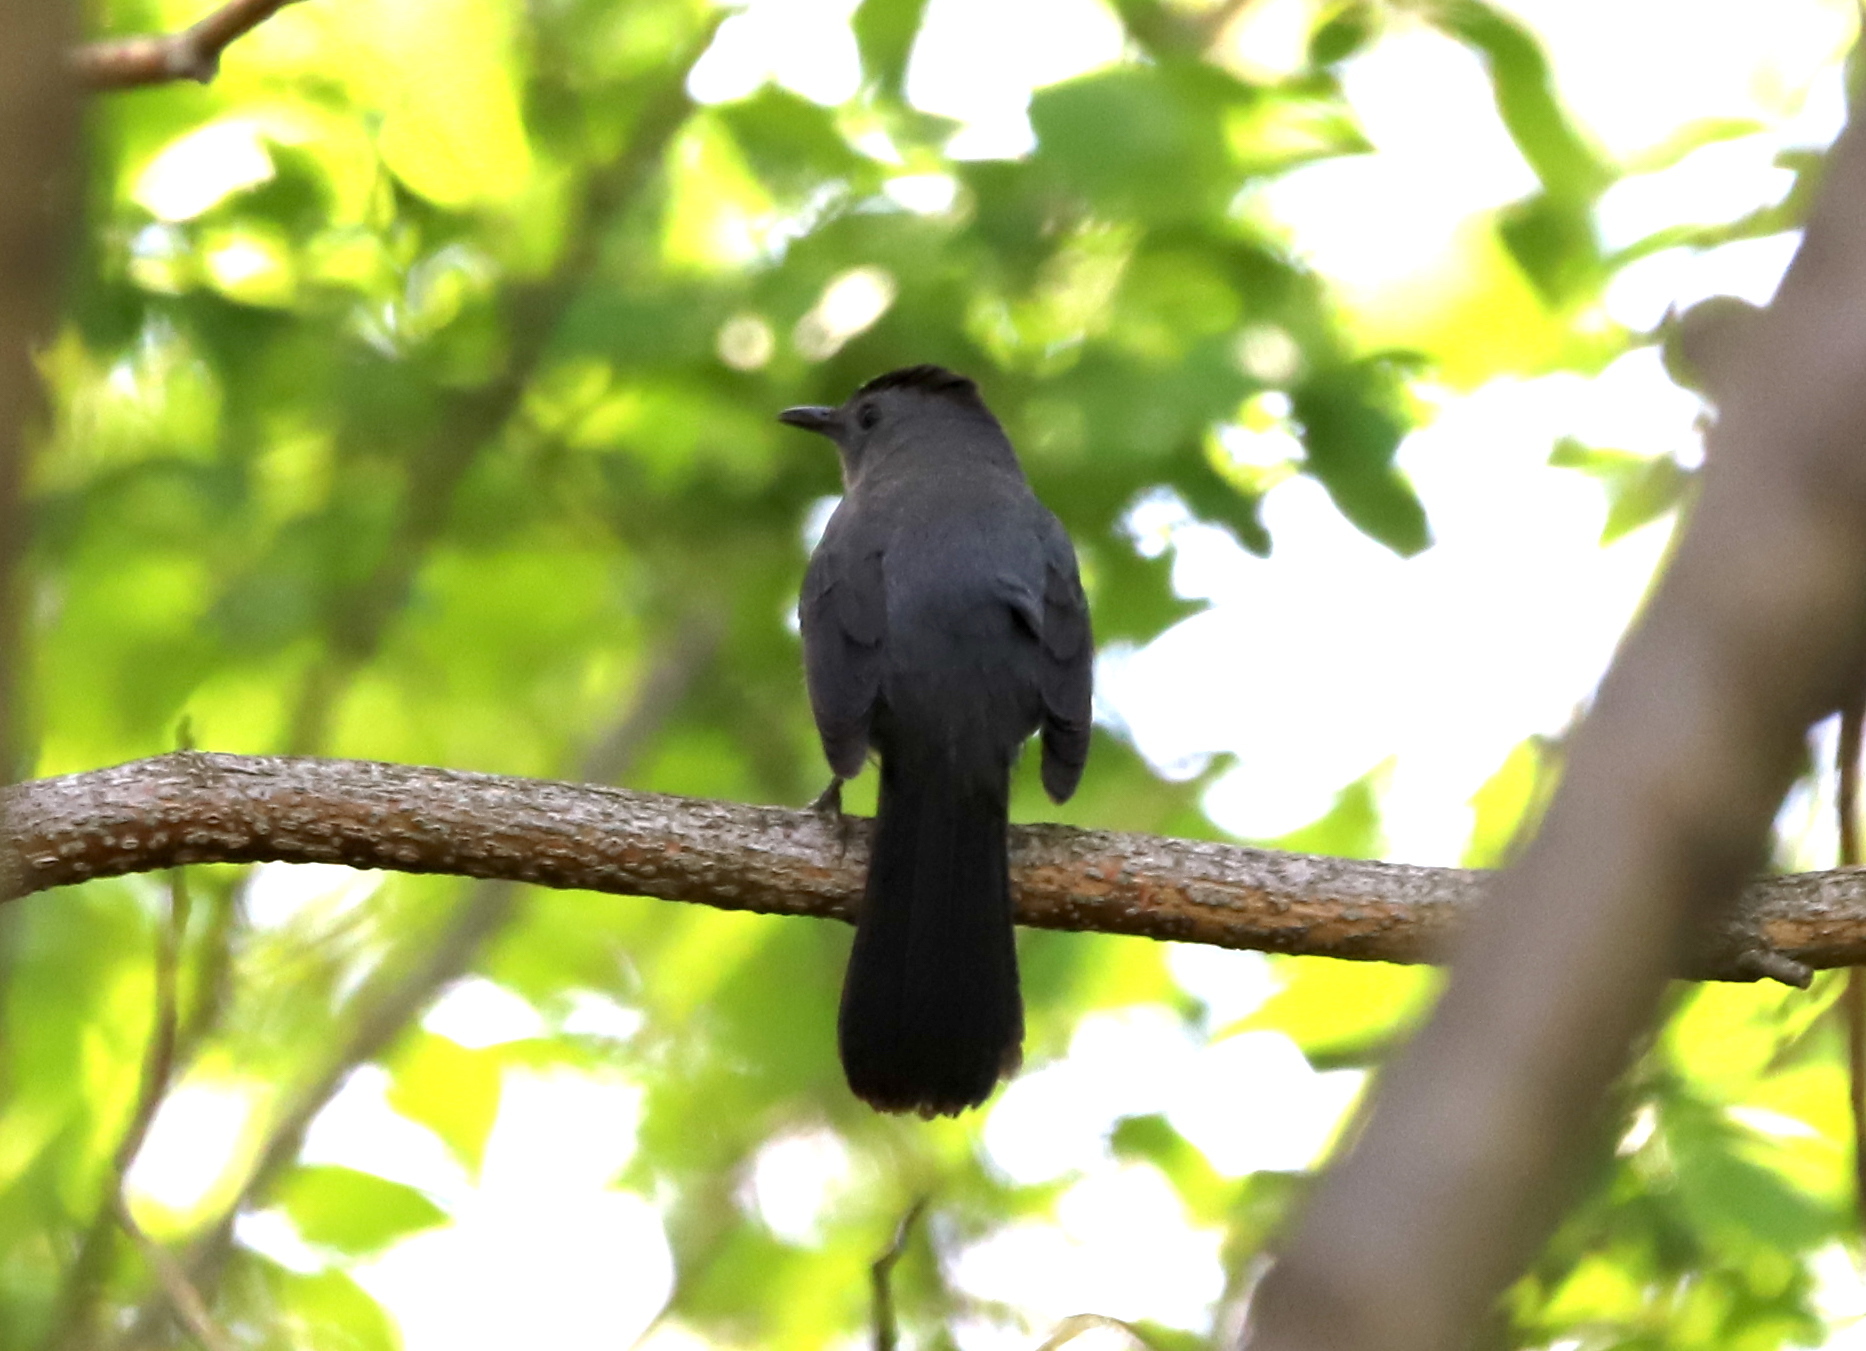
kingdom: Animalia
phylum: Chordata
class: Aves
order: Passeriformes
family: Mimidae
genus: Dumetella
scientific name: Dumetella carolinensis
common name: Gray catbird
